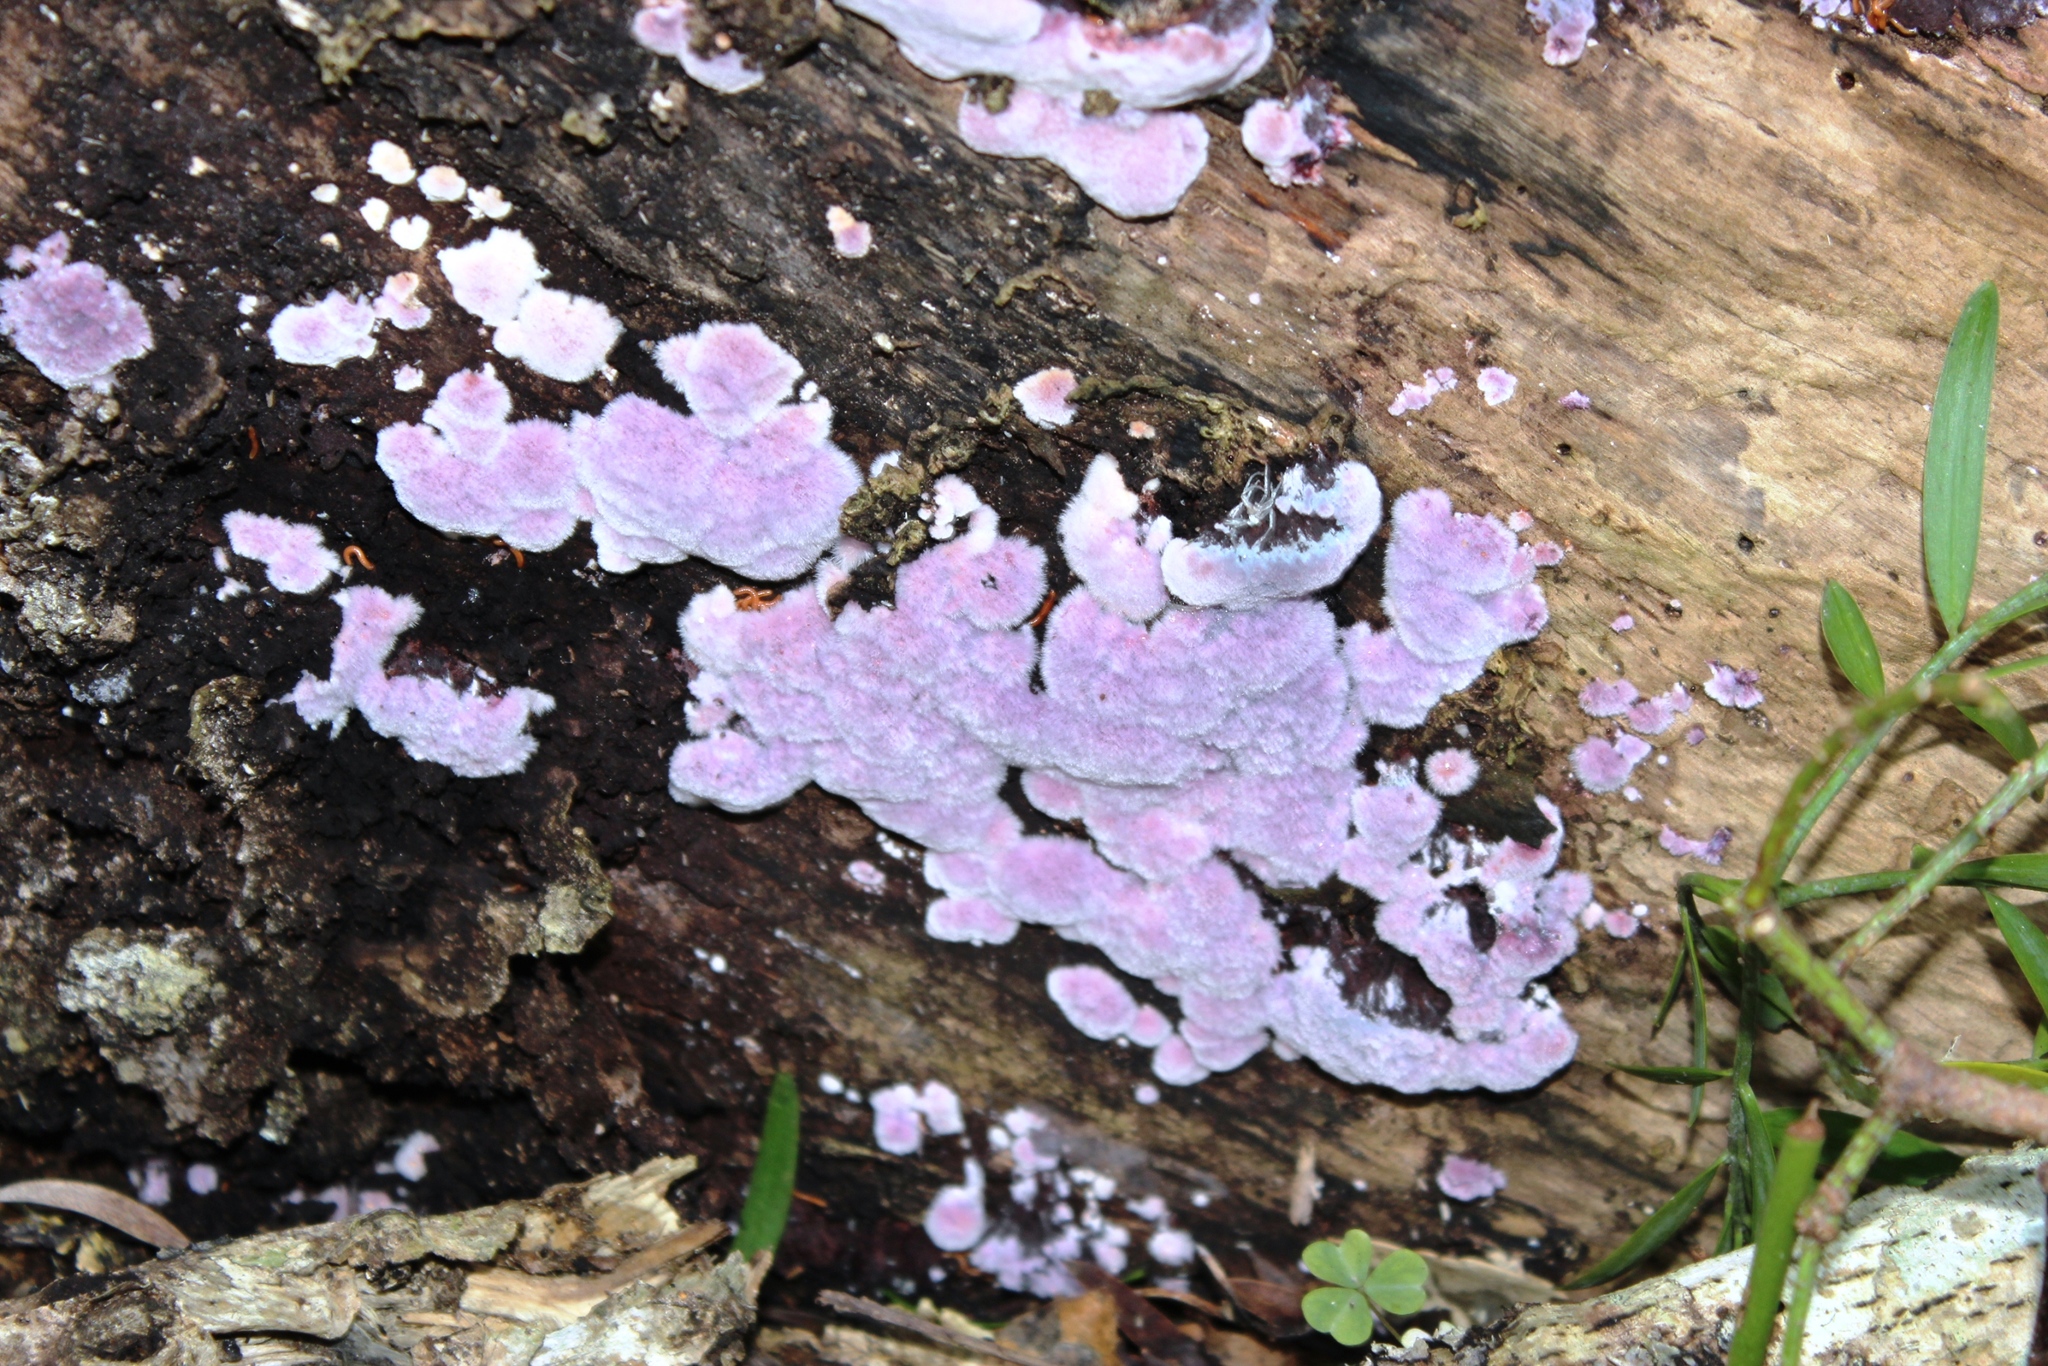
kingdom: Fungi
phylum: Basidiomycota
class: Agaricomycetes
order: Corticiales
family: Punctulariaceae
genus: Punctularia
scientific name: Punctularia atropurpurascens
